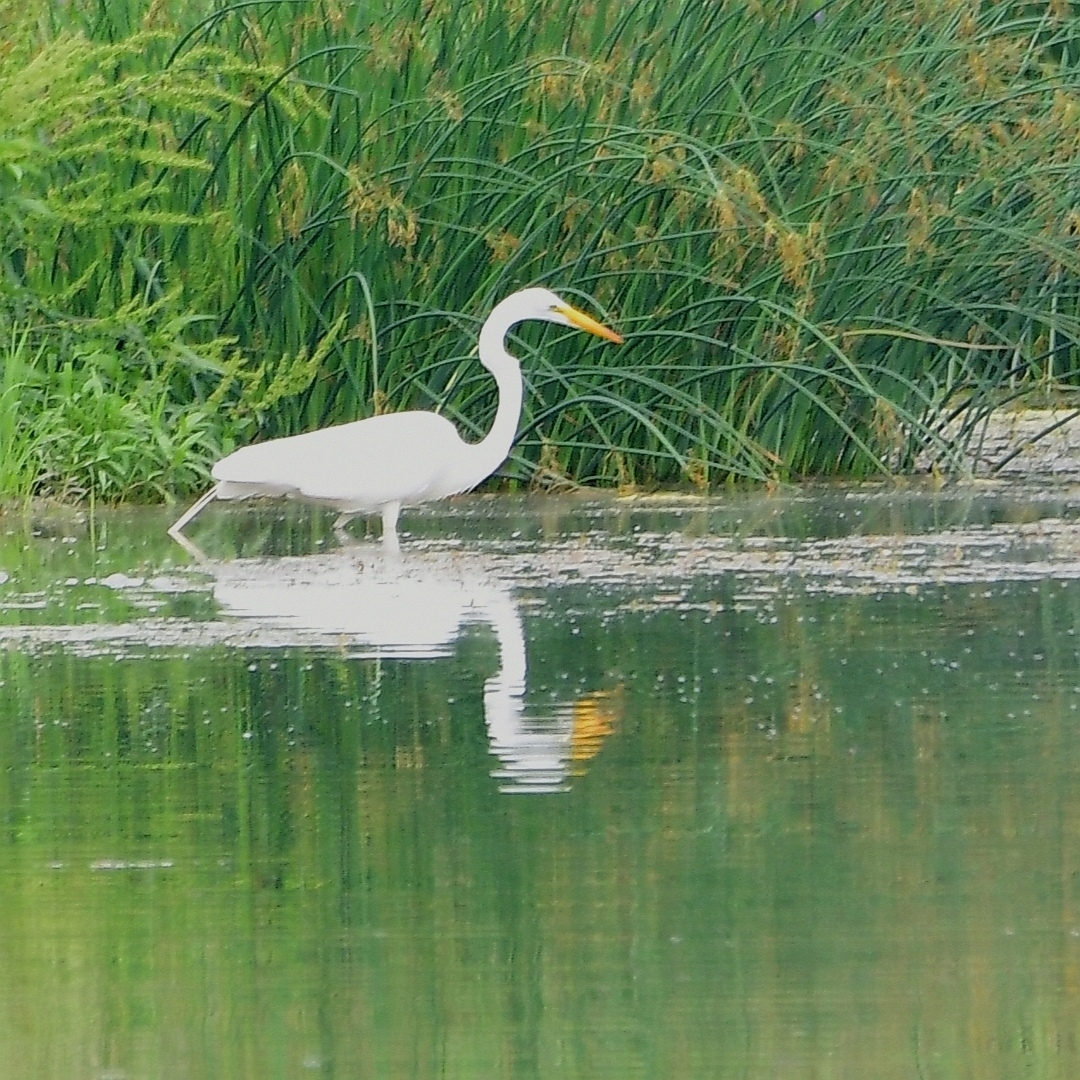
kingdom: Animalia
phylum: Chordata
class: Aves
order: Pelecaniformes
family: Ardeidae
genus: Ardea
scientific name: Ardea alba
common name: Great egret
